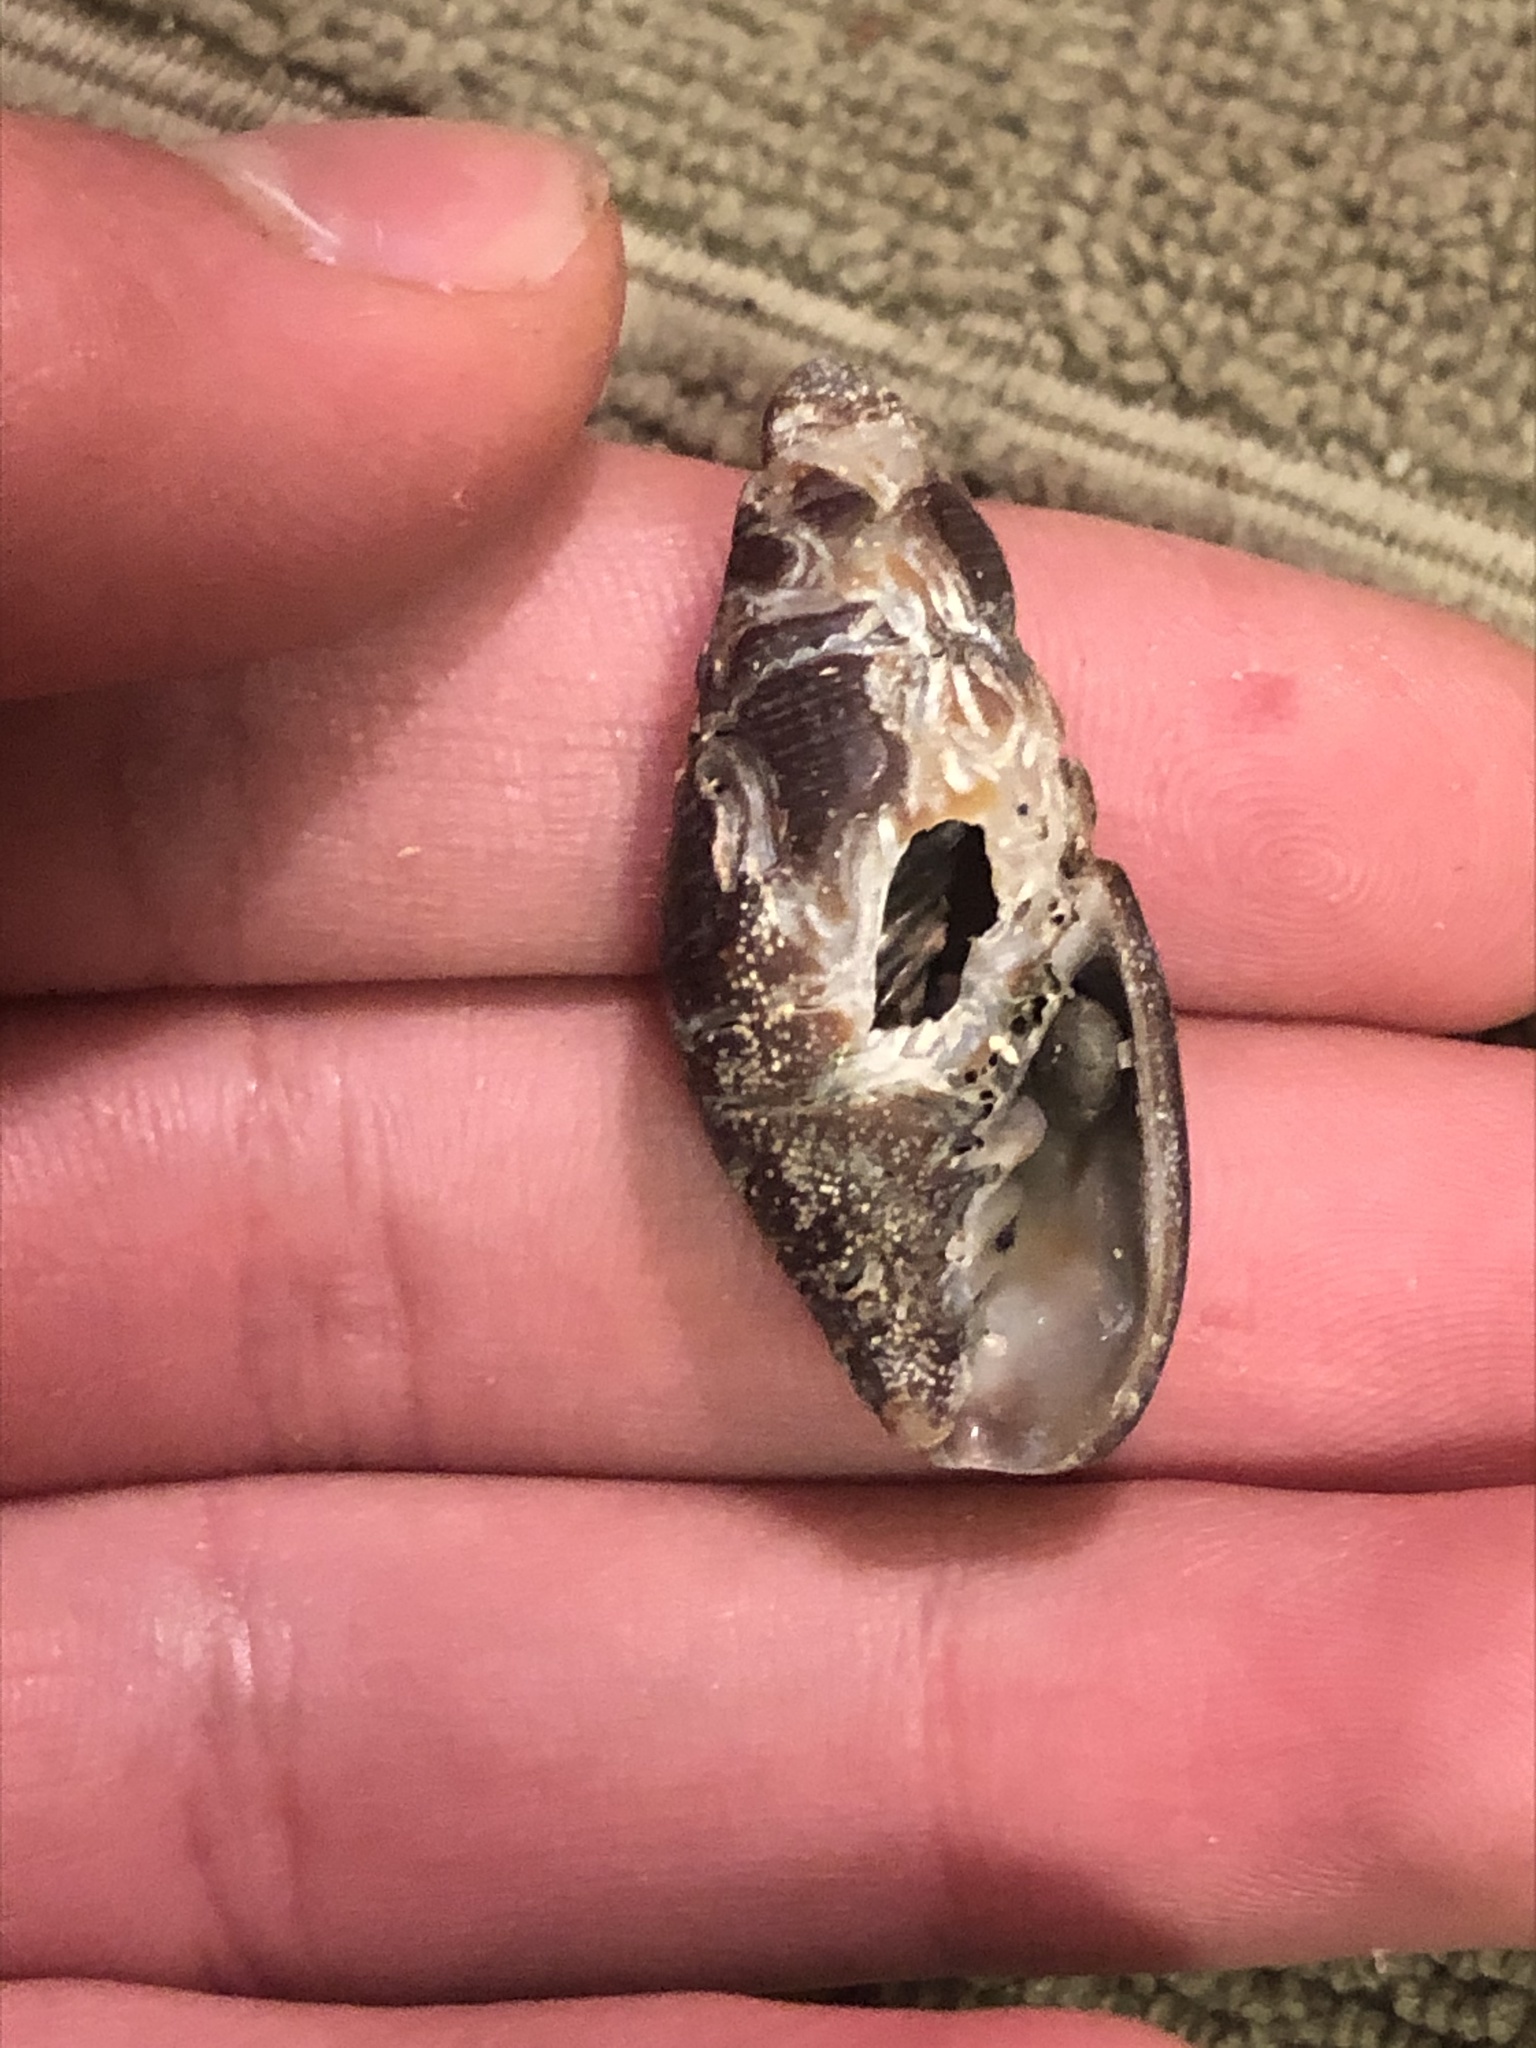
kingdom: Animalia
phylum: Mollusca
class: Gastropoda
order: Neogastropoda
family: Mitridae
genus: Atrimitra
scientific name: Atrimitra idae
